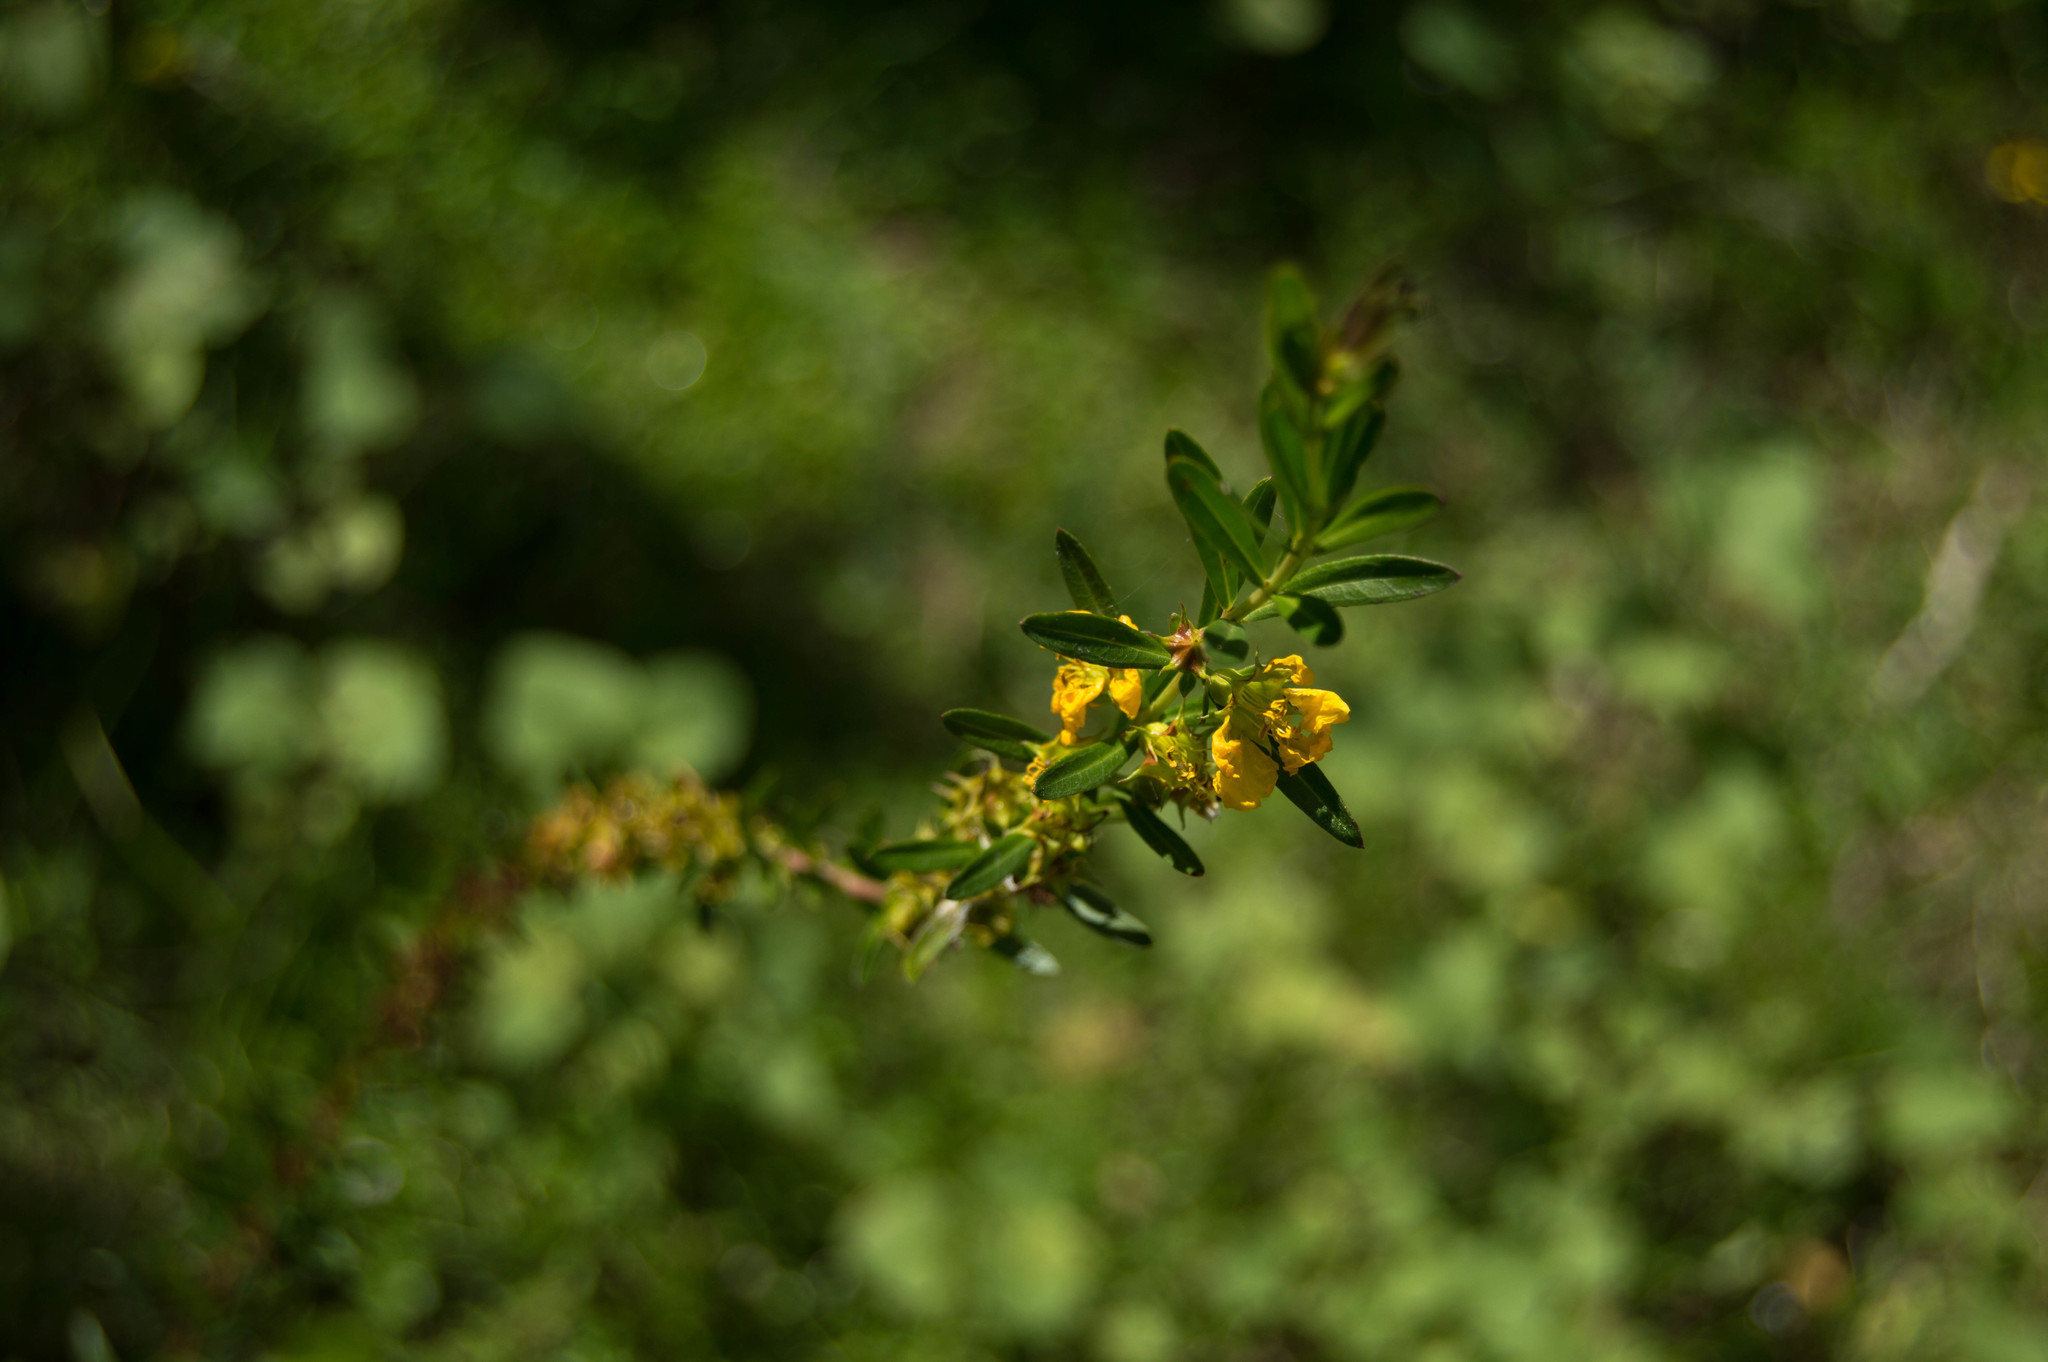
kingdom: Plantae
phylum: Tracheophyta
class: Magnoliopsida
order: Myrtales
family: Lythraceae
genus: Heimia
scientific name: Heimia salicifolia
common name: Willow-leaf heimia
